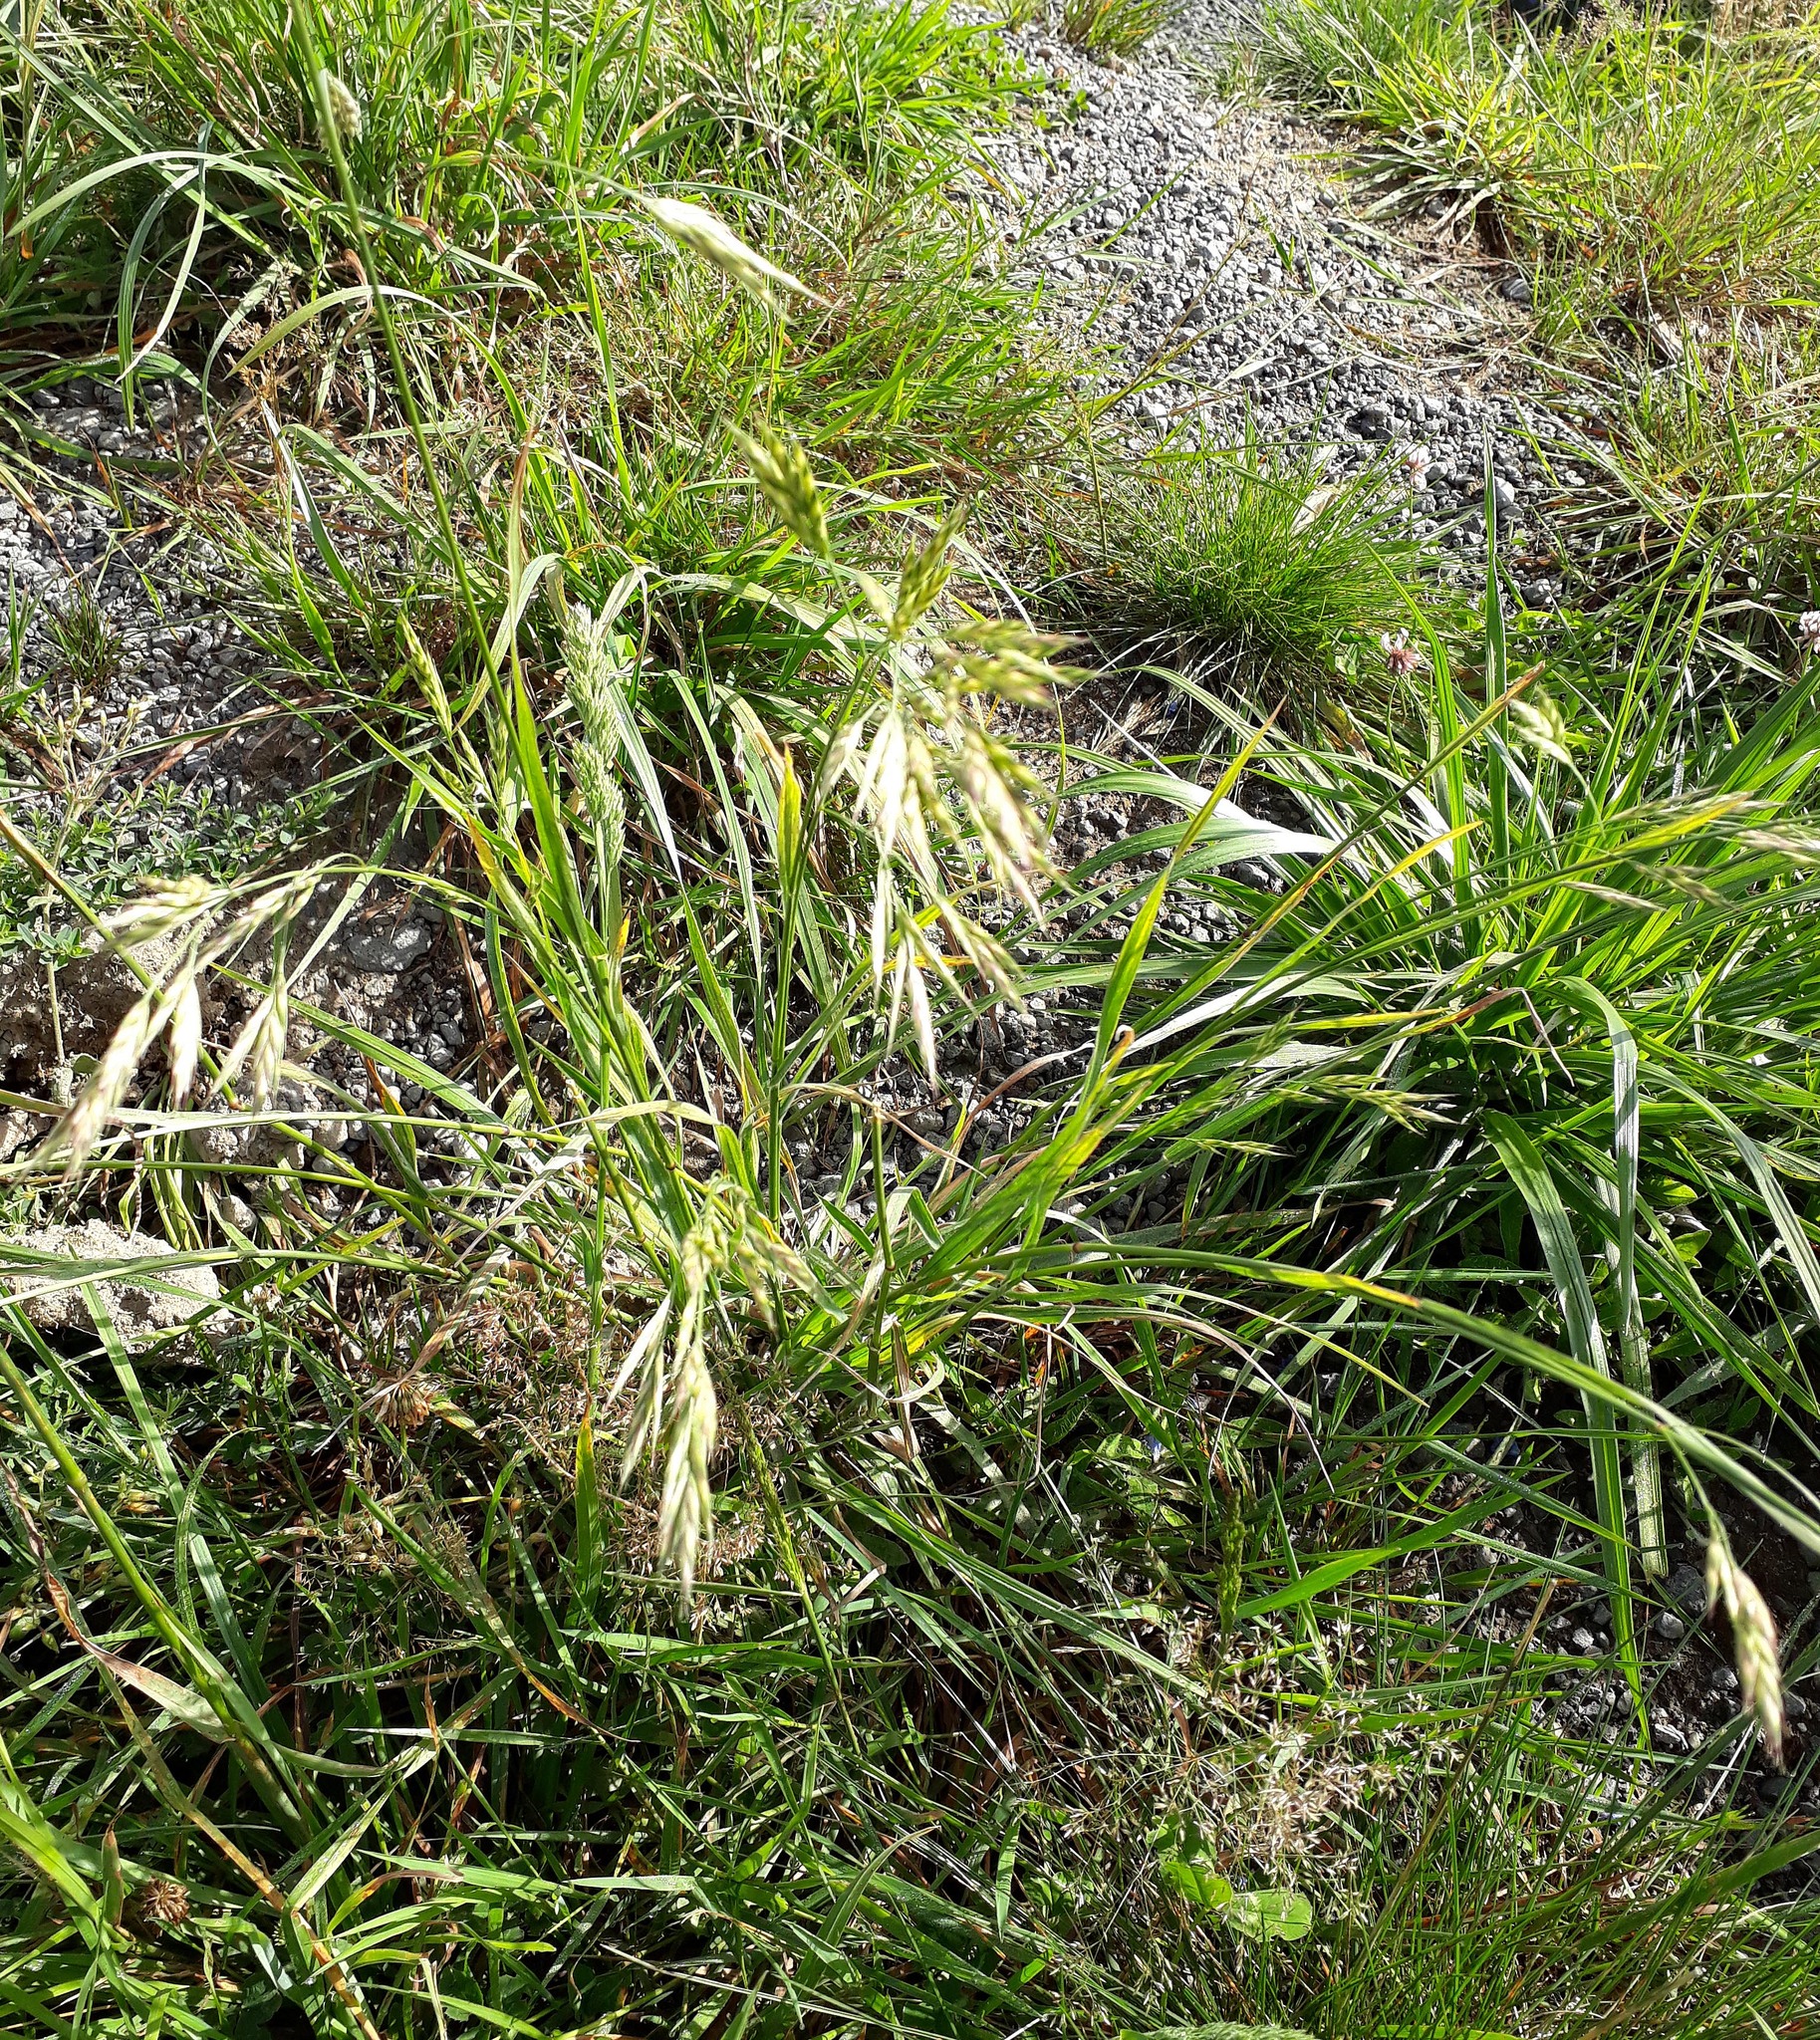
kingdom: Plantae
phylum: Tracheophyta
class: Liliopsida
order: Poales
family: Poaceae
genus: Bromus
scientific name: Bromus cebadilla
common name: Southern brome
